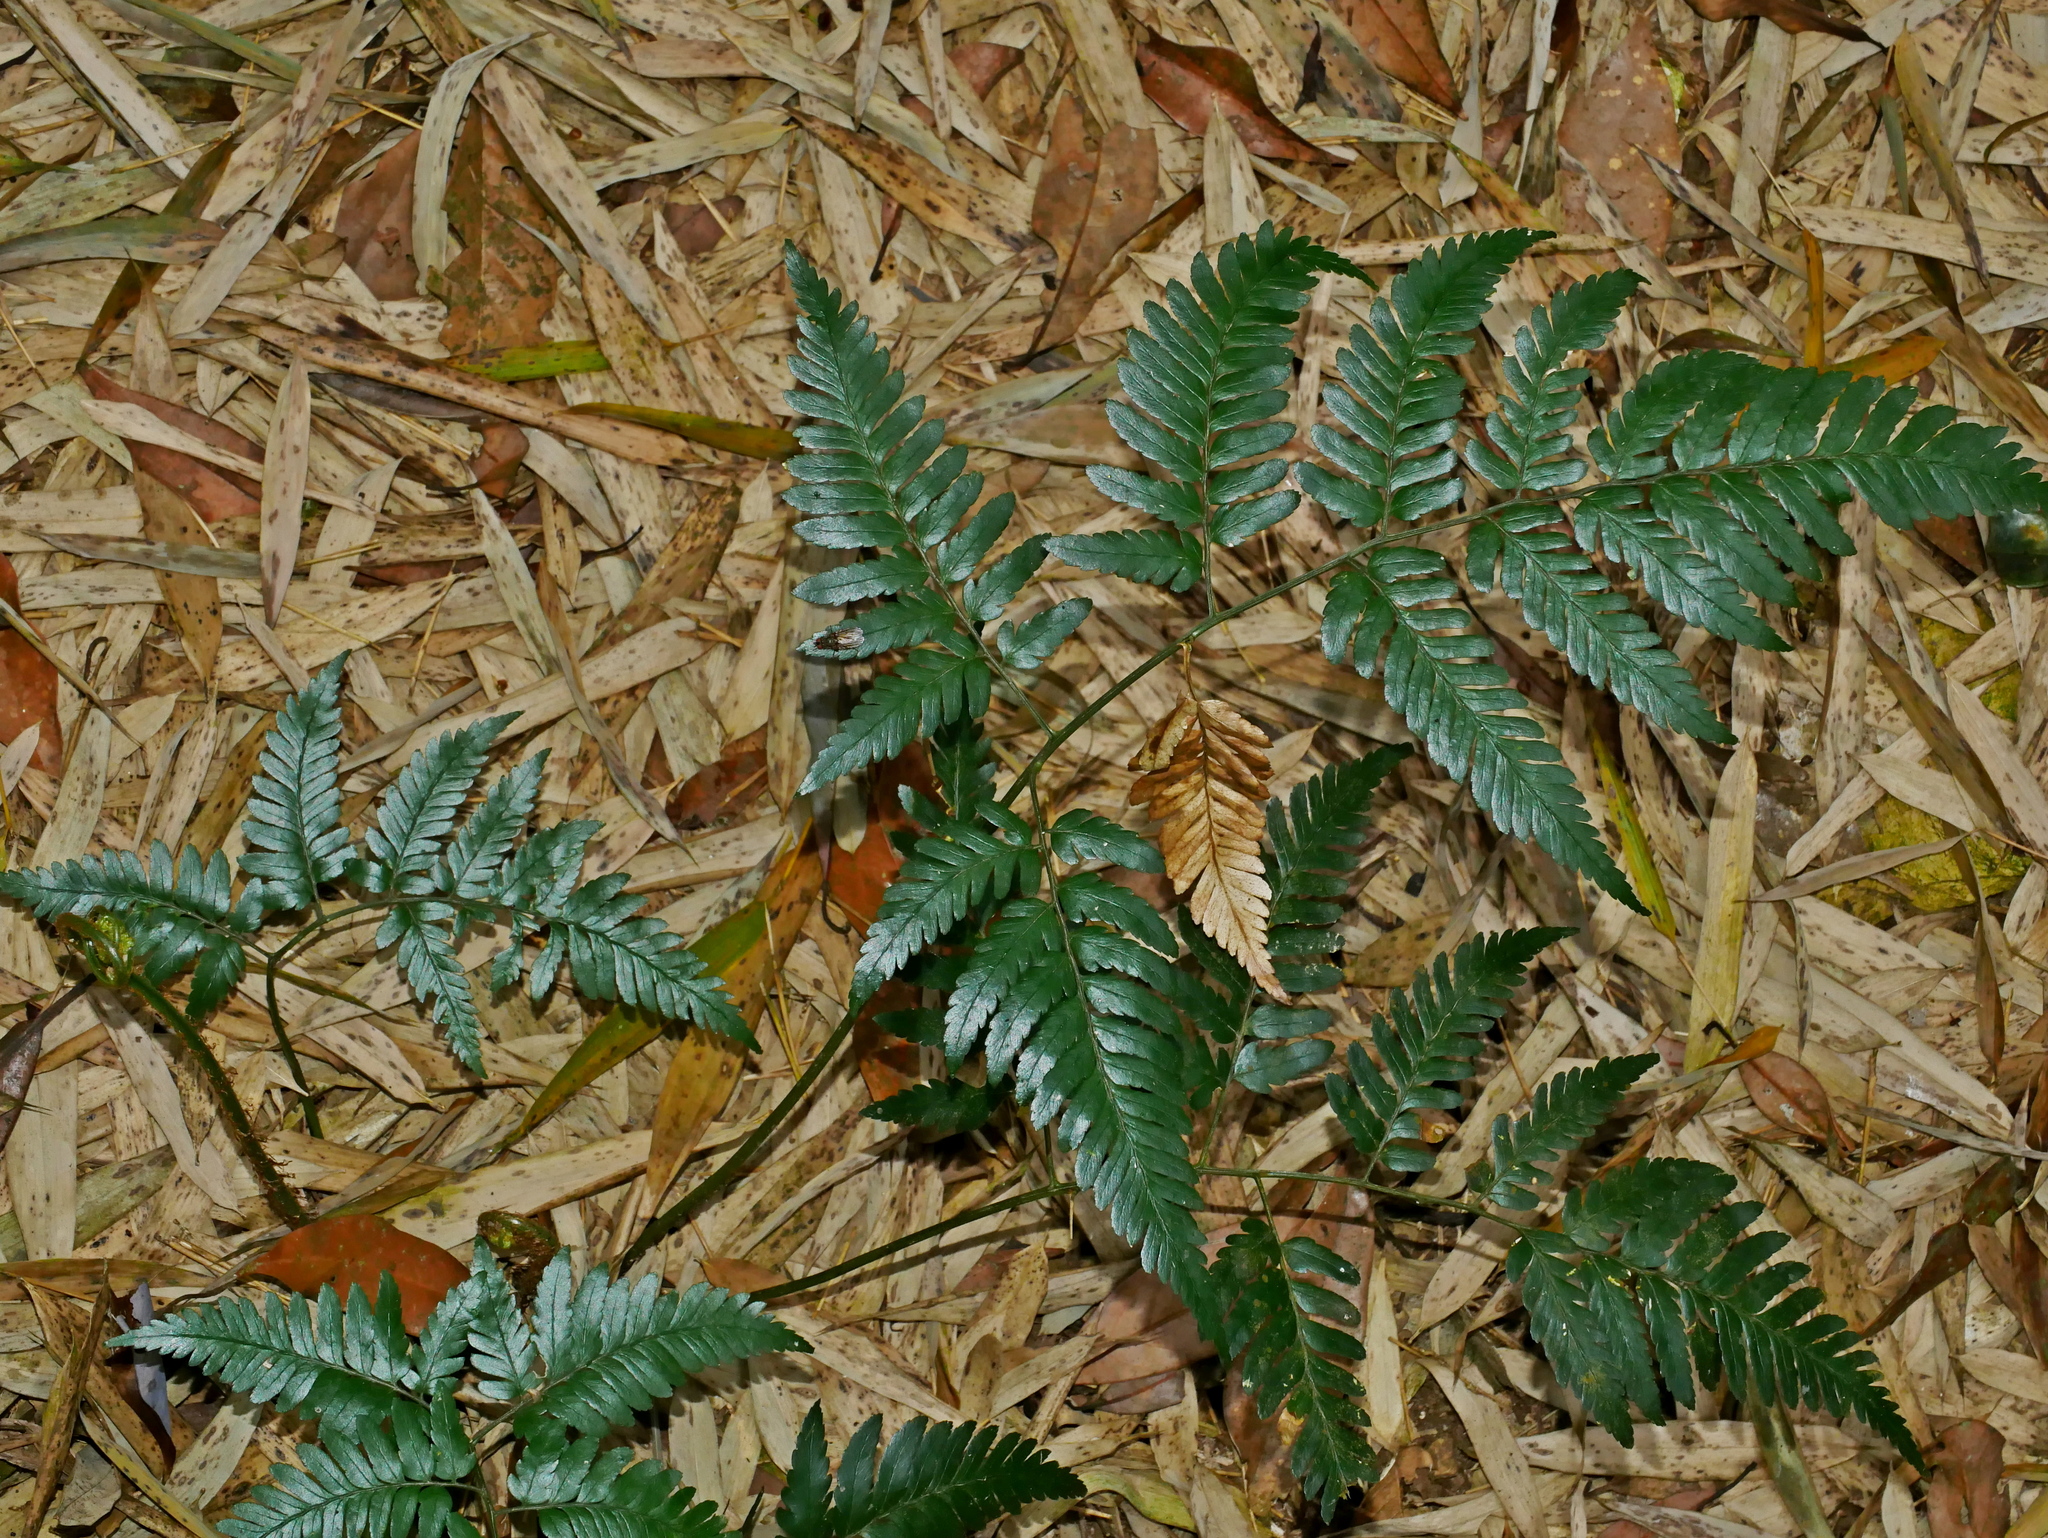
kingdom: Plantae
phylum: Tracheophyta
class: Polypodiopsida
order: Polypodiales
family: Dryopteridaceae
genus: Dryopteris
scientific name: Dryopteris polita
